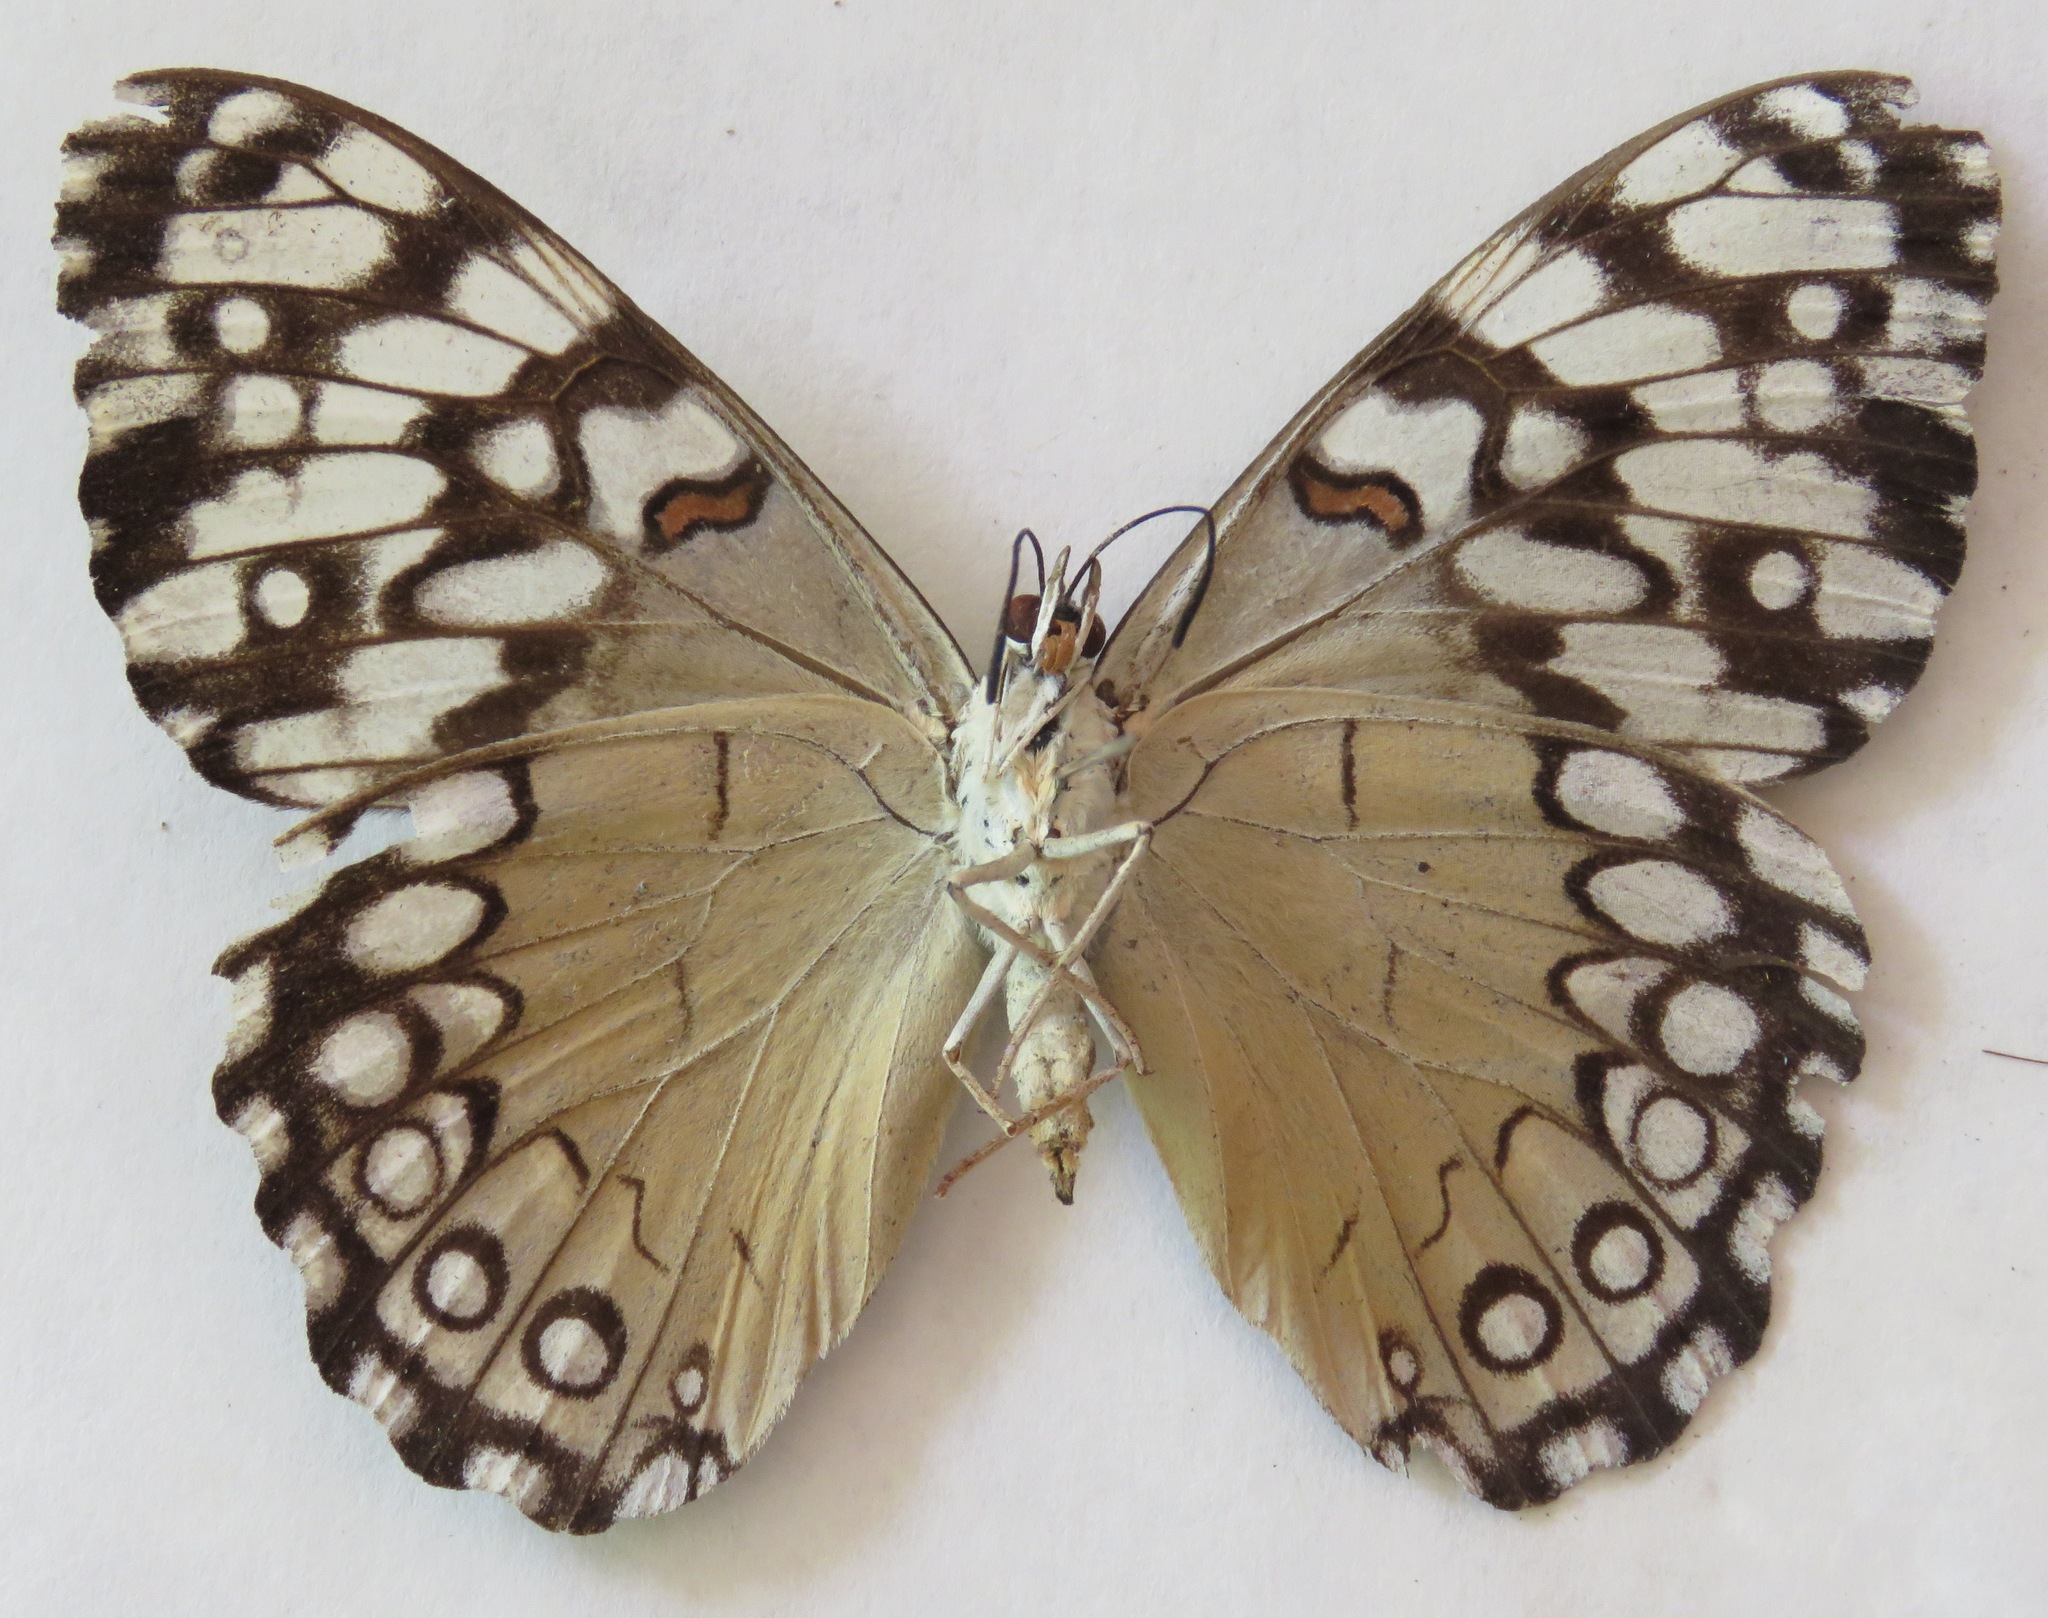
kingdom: Animalia
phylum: Arthropoda
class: Insecta
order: Lepidoptera
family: Nymphalidae
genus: Hamadryas
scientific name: Hamadryas guatemalena
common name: Guatemalan cracker
